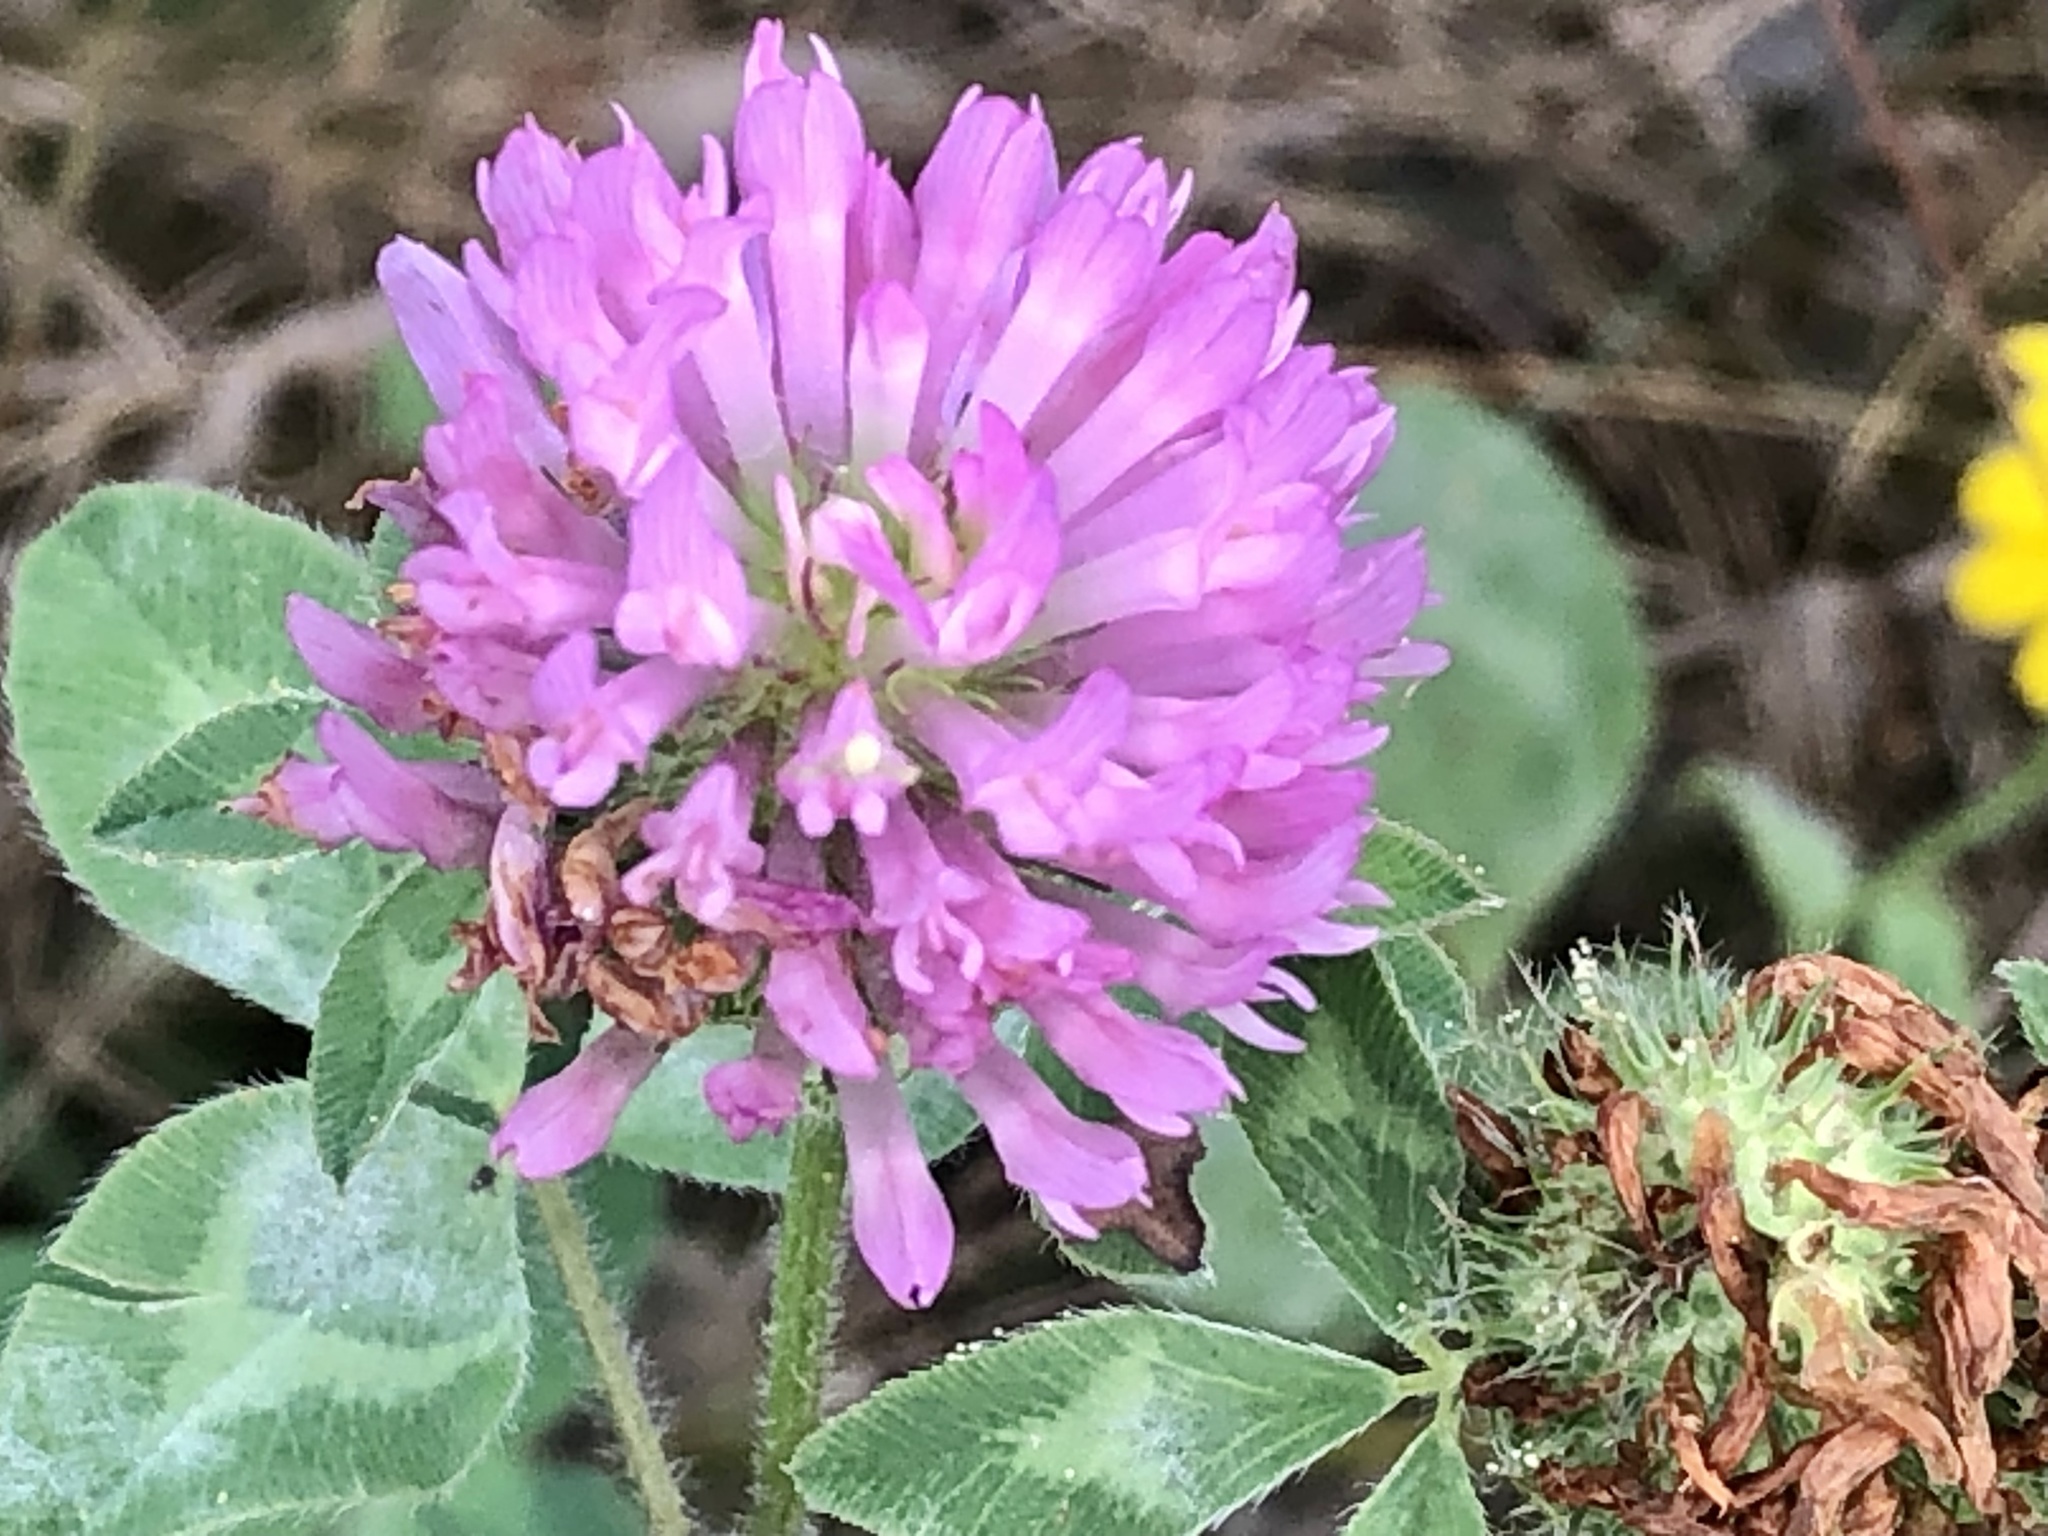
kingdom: Plantae
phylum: Tracheophyta
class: Magnoliopsida
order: Fabales
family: Fabaceae
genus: Trifolium
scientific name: Trifolium pratense
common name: Red clover
